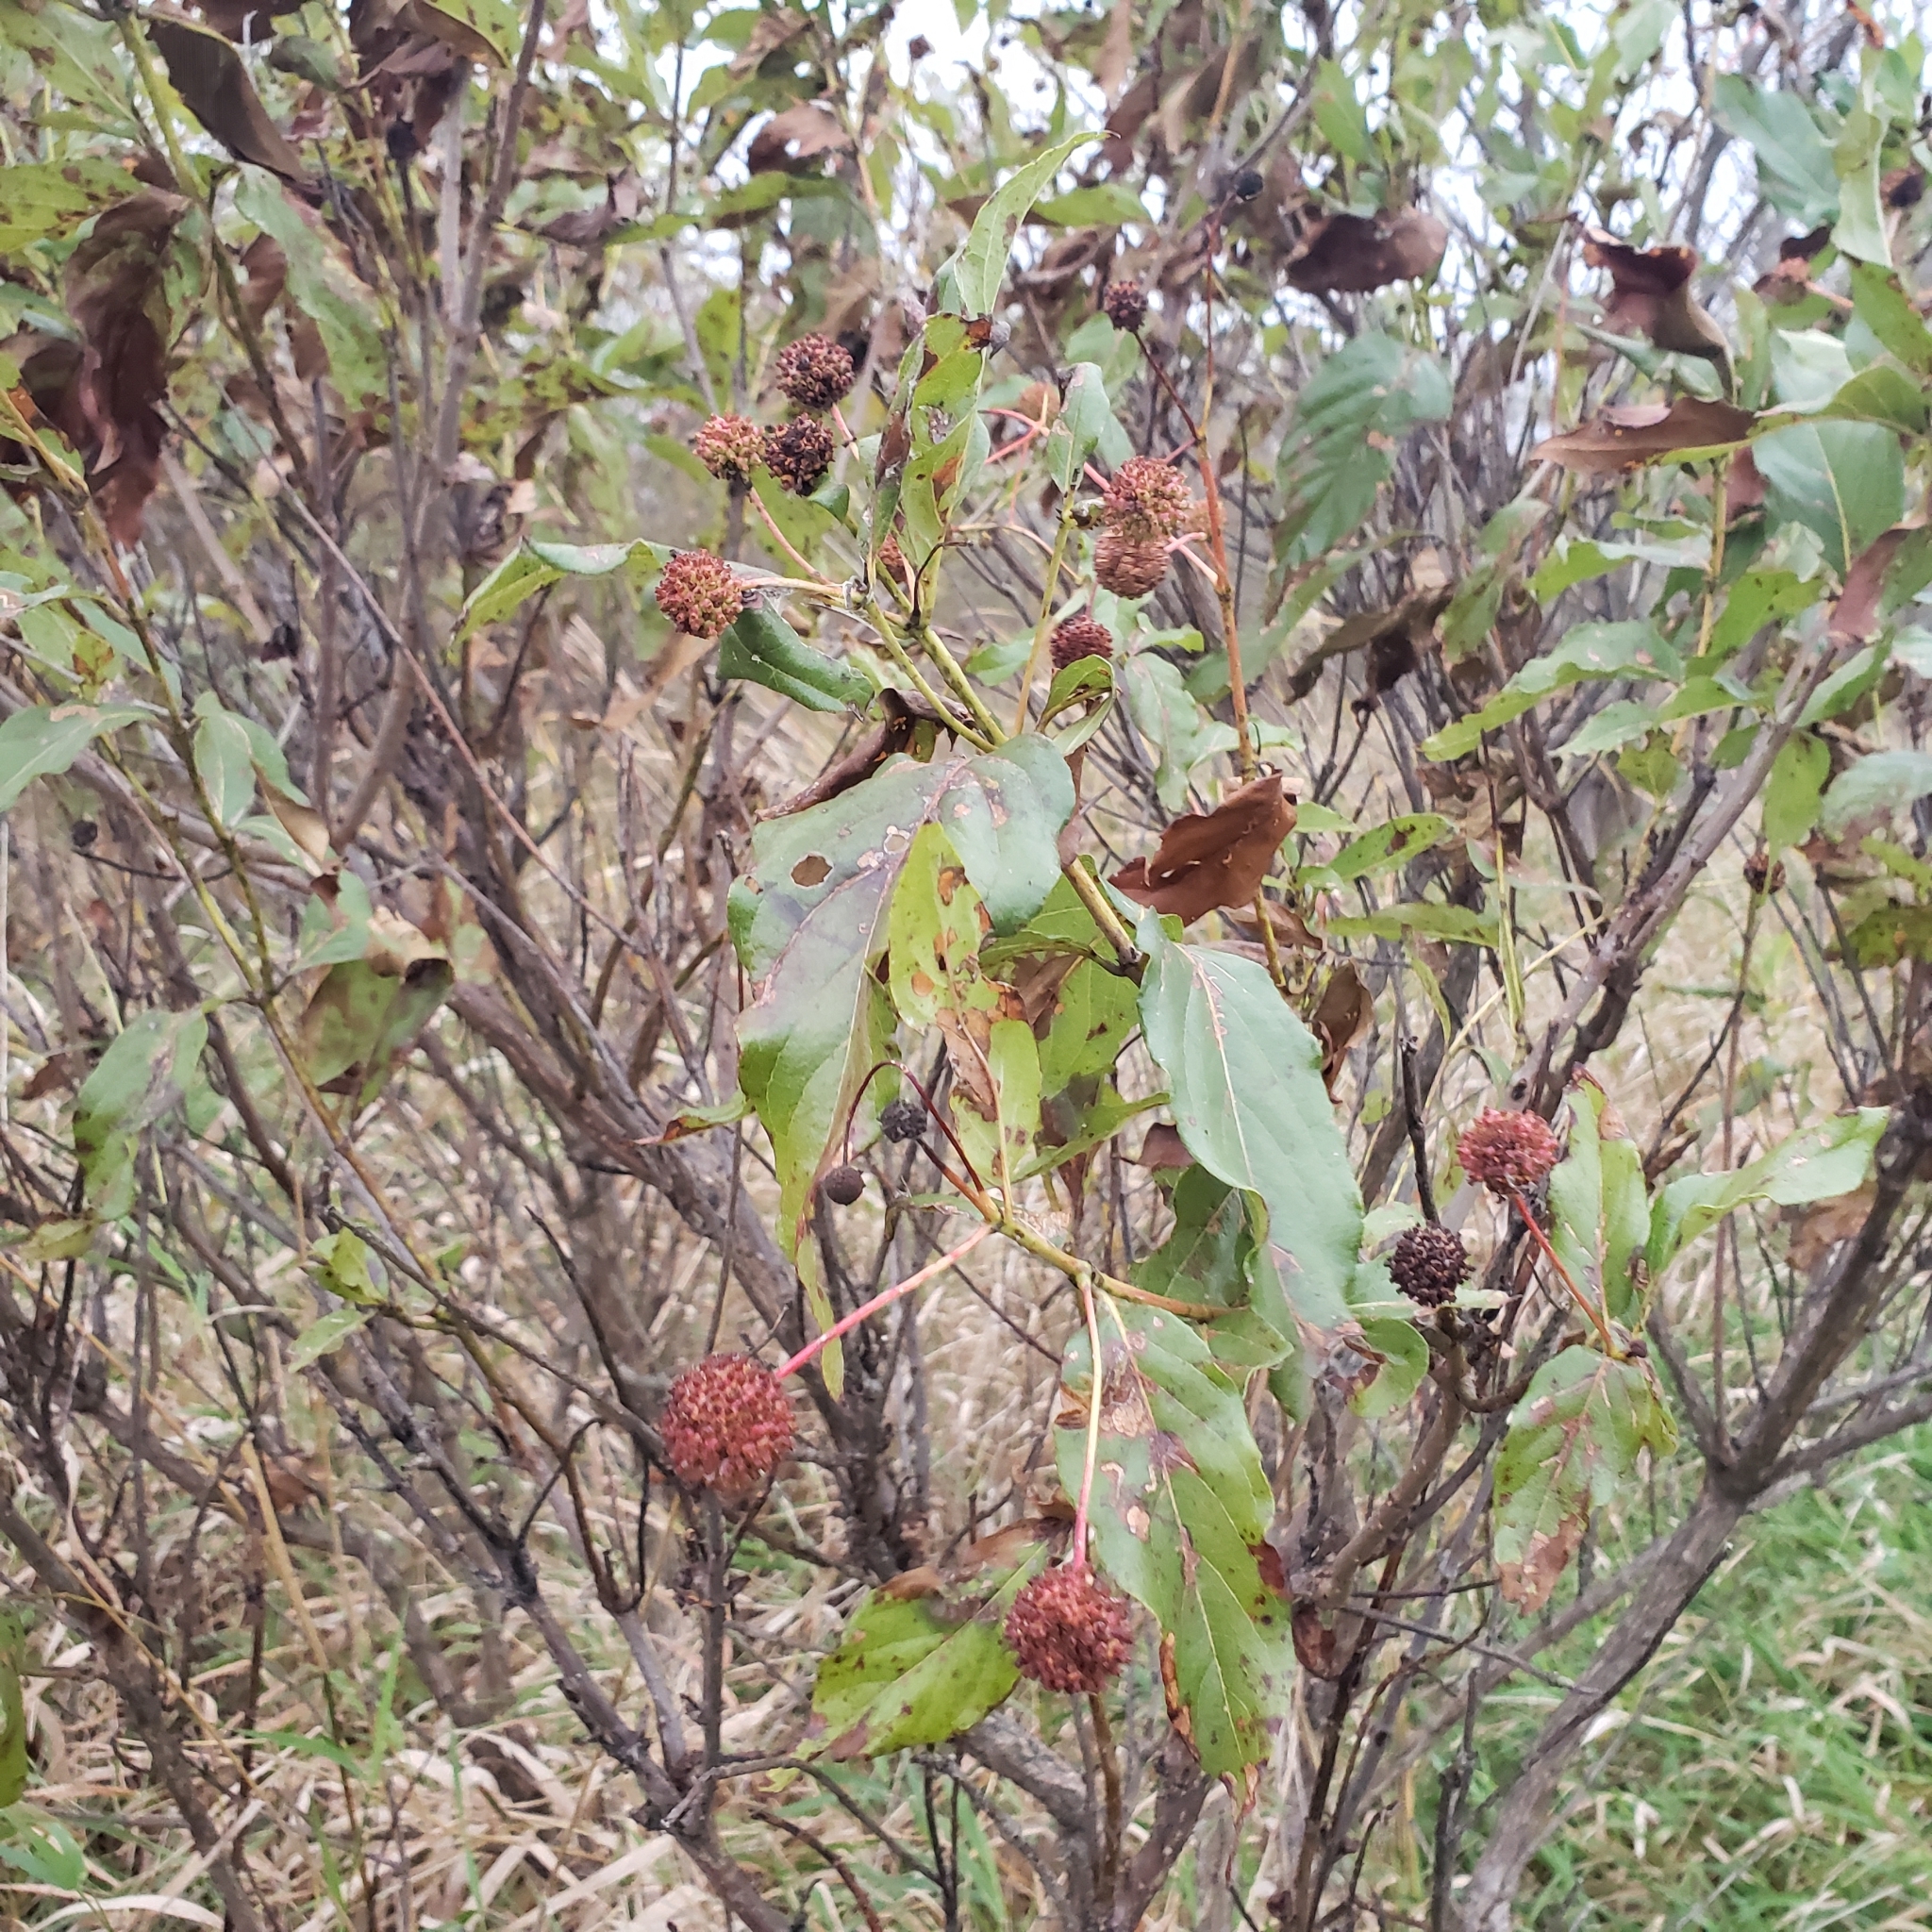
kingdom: Plantae
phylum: Tracheophyta
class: Magnoliopsida
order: Gentianales
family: Rubiaceae
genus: Cephalanthus
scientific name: Cephalanthus occidentalis
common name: Button-willow
